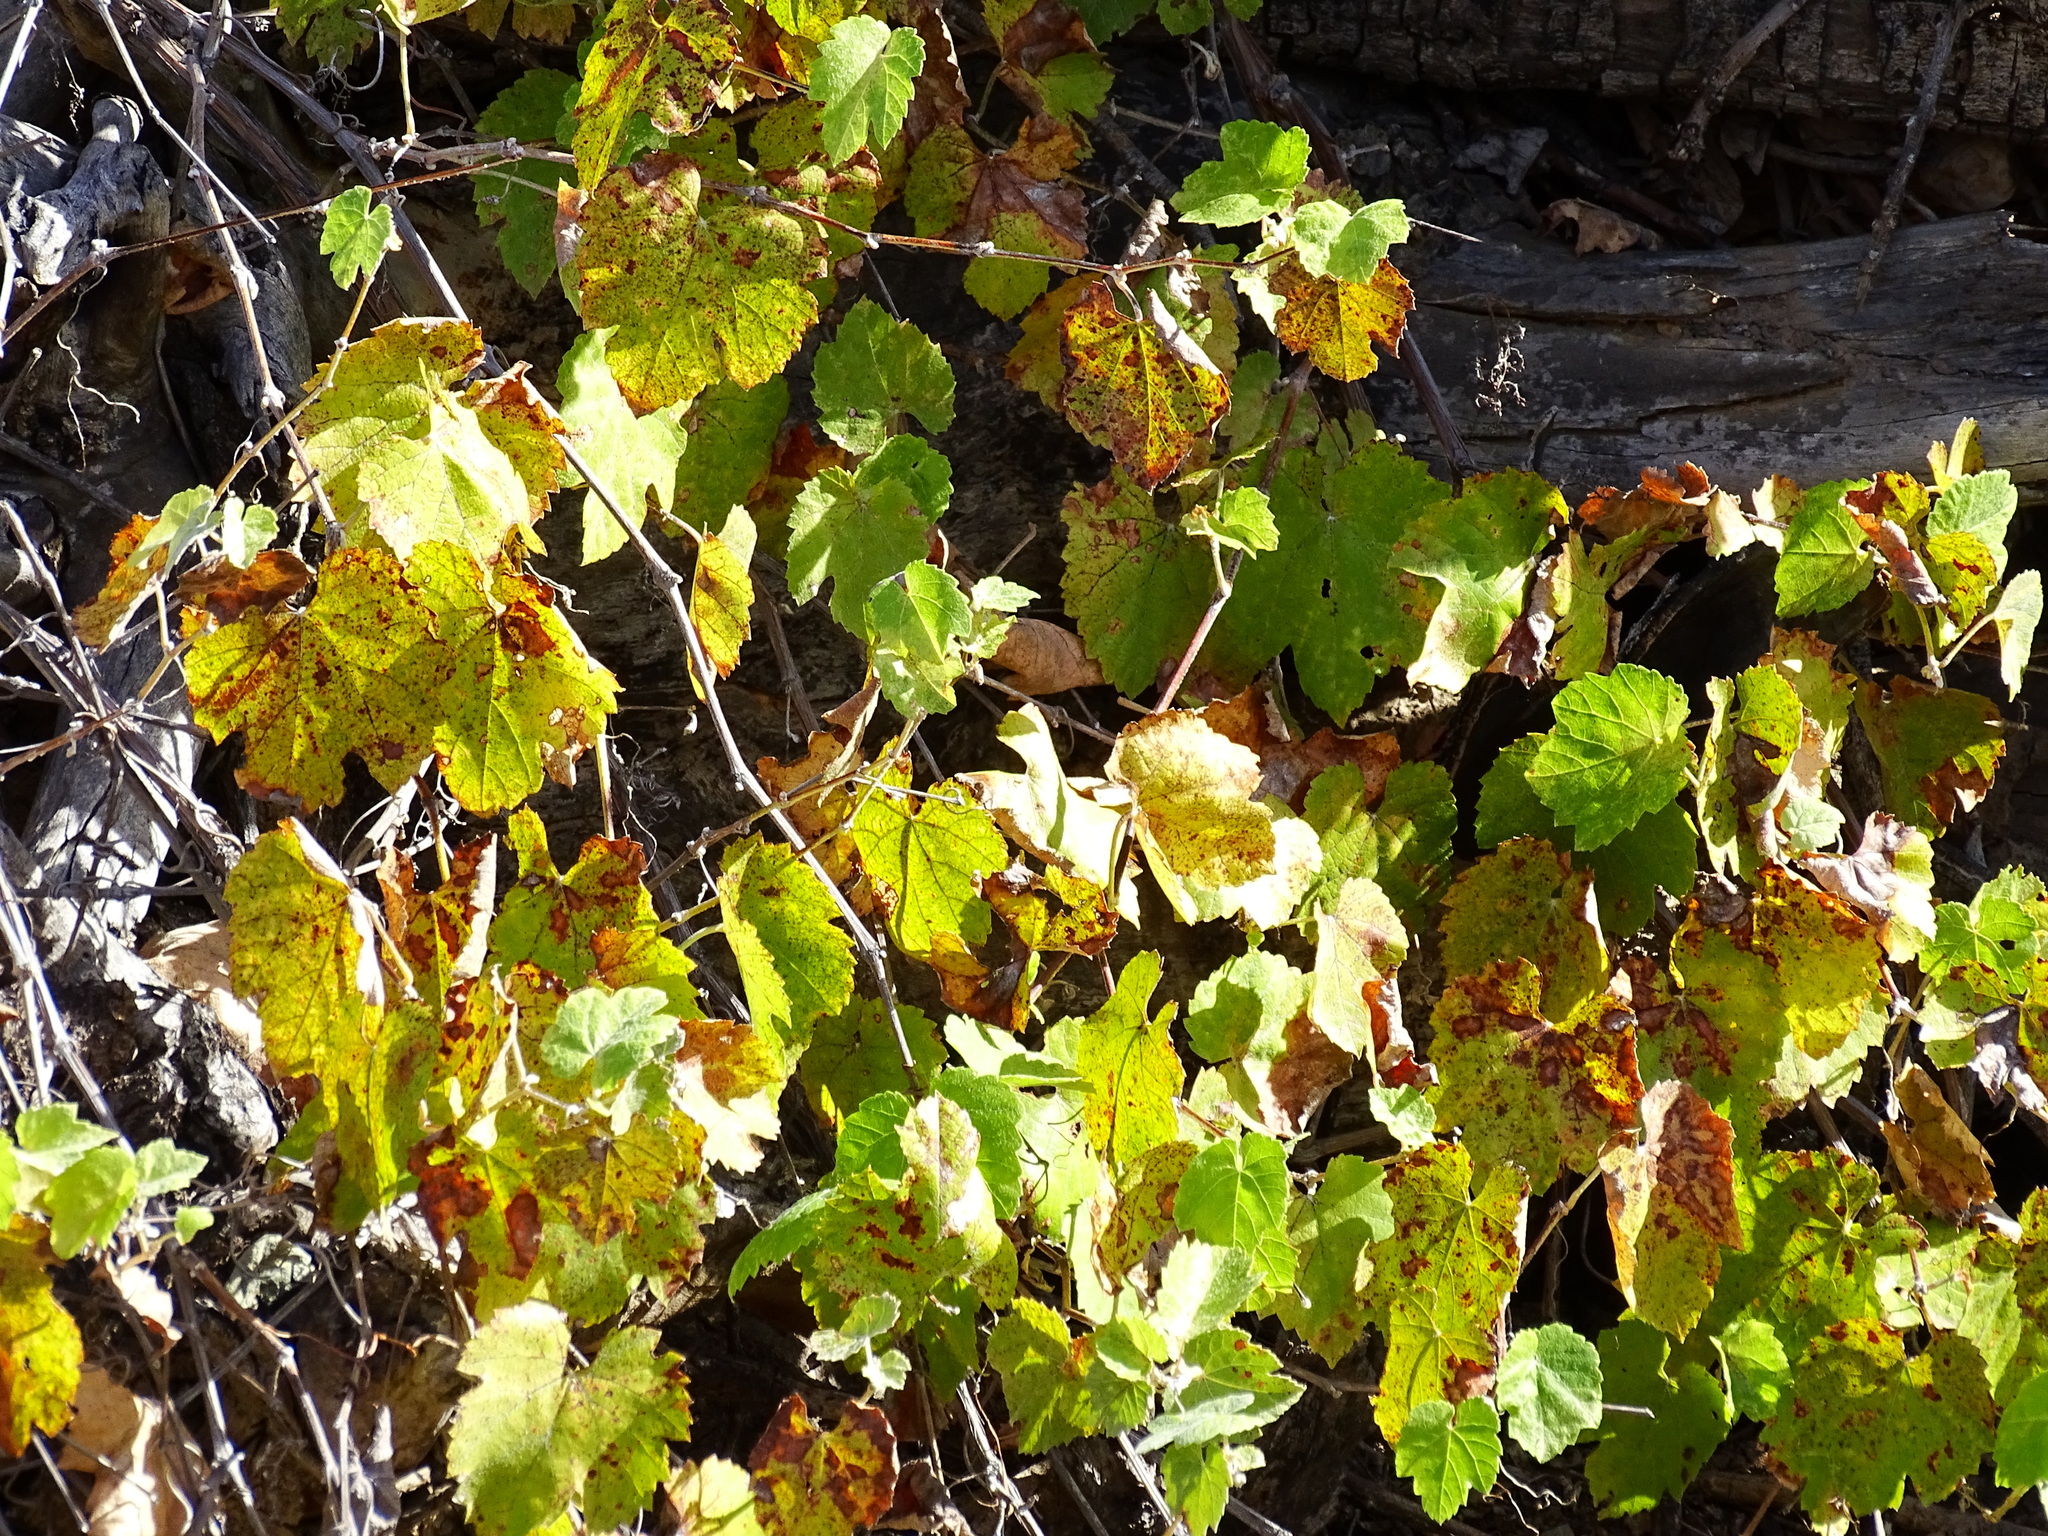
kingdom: Plantae
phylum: Tracheophyta
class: Magnoliopsida
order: Vitales
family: Vitaceae
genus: Vitis
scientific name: Vitis girdiana
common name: Desert wild grape
